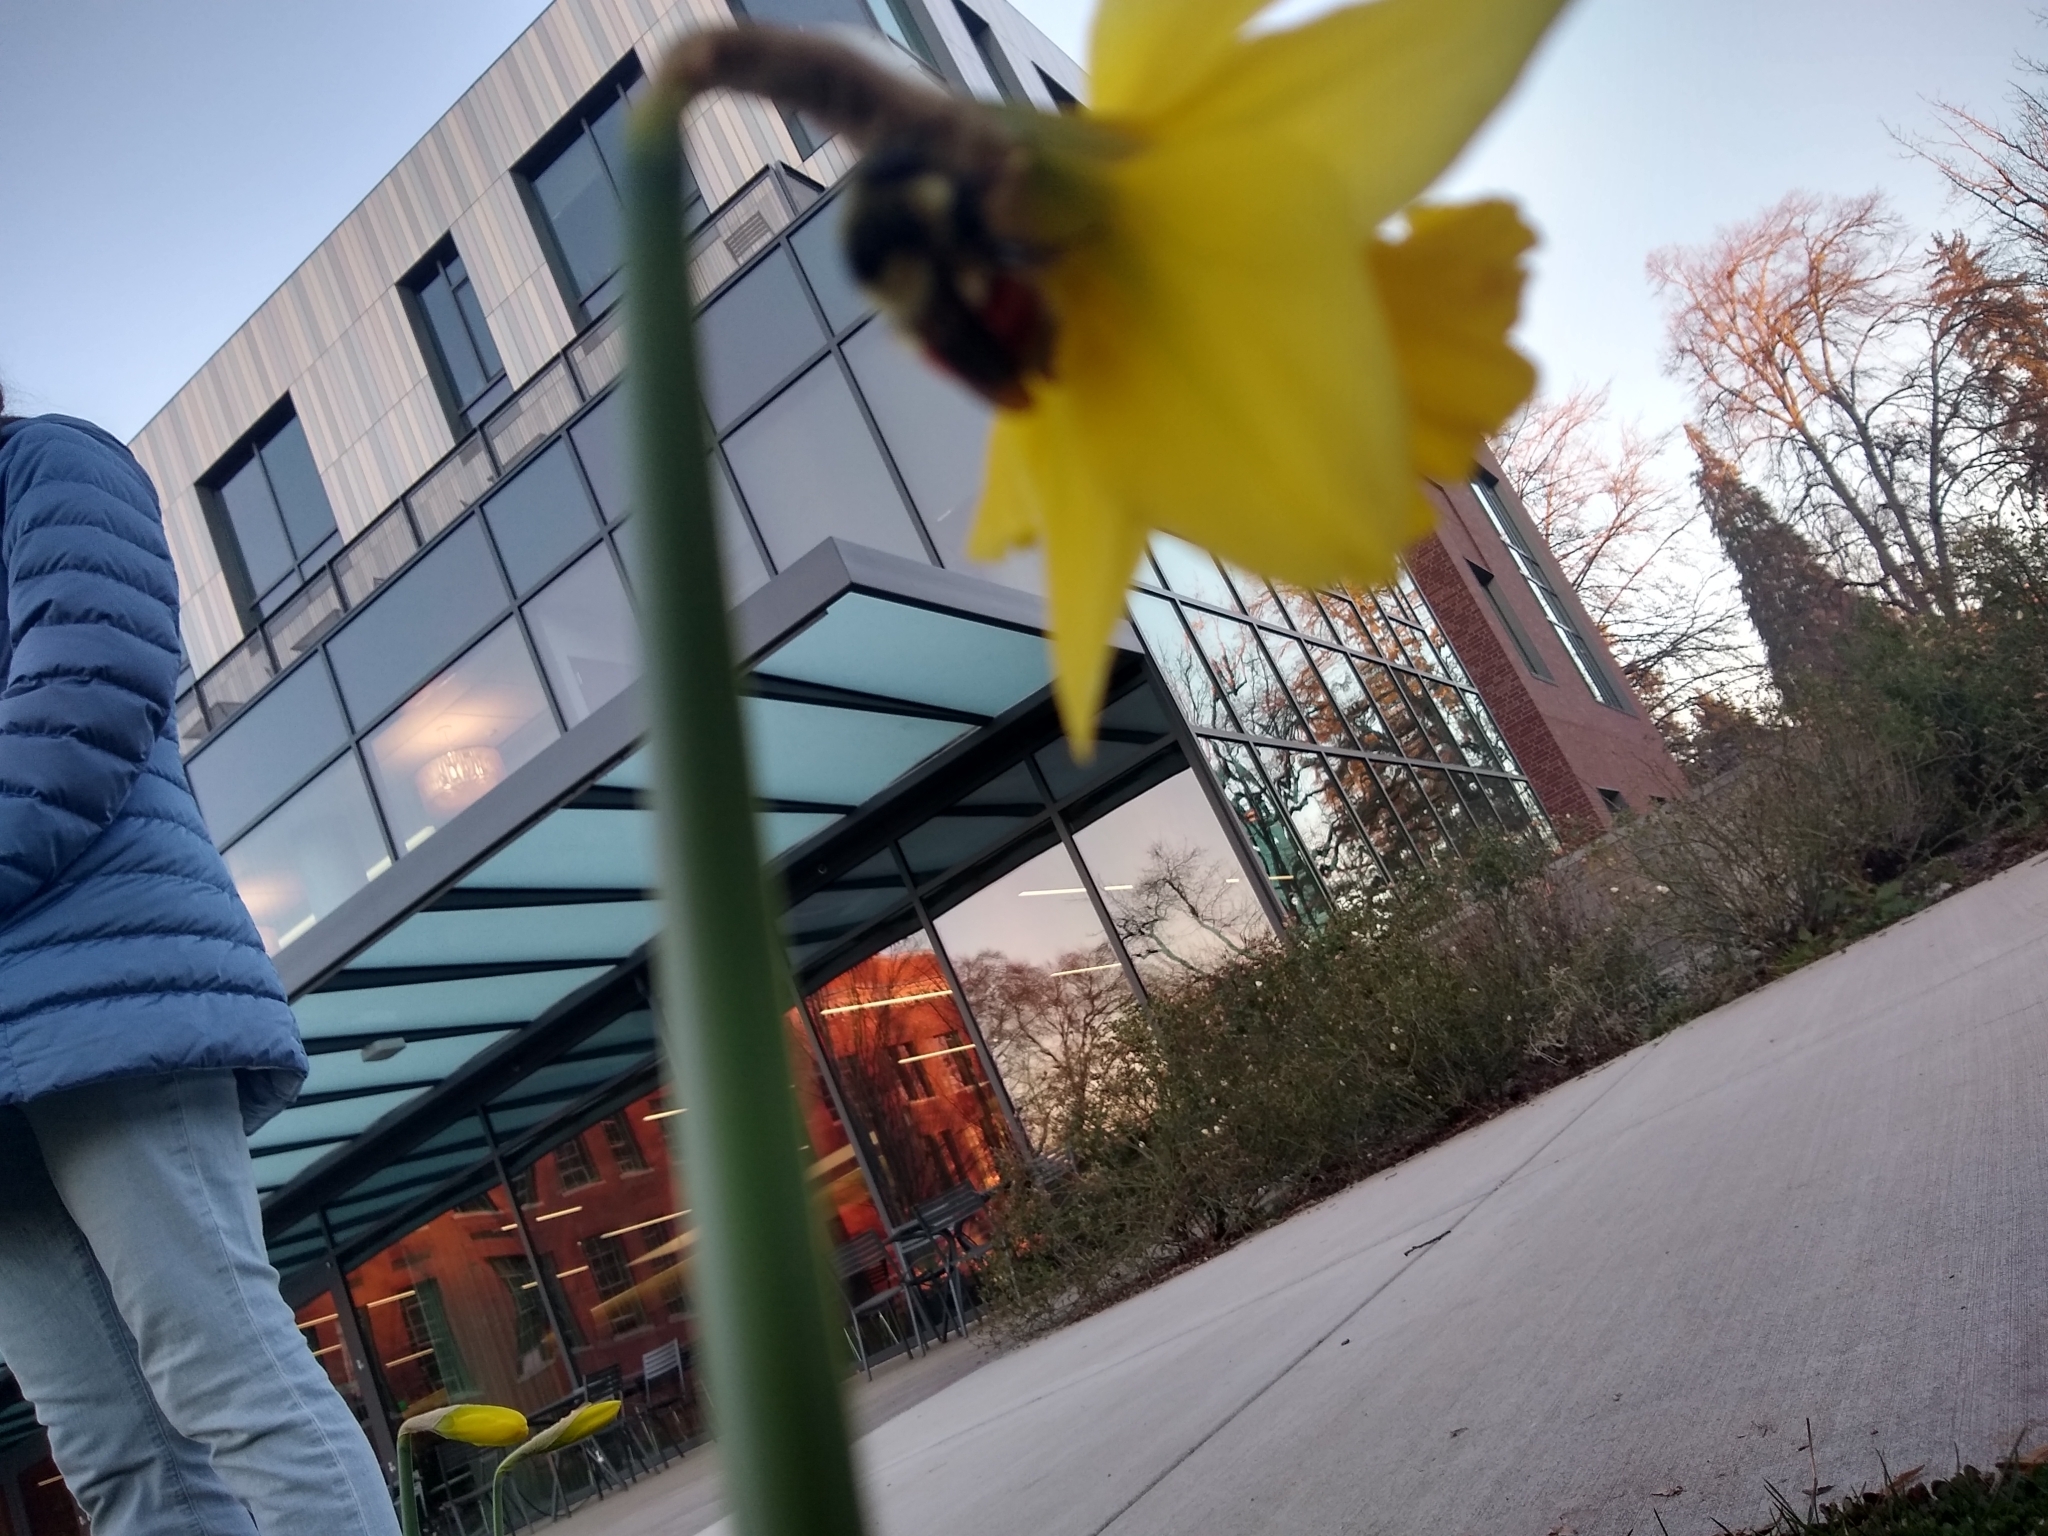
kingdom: Animalia
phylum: Arthropoda
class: Insecta
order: Hymenoptera
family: Apidae
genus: Bombus
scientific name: Bombus melanopygus
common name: Black tail bumble bee
